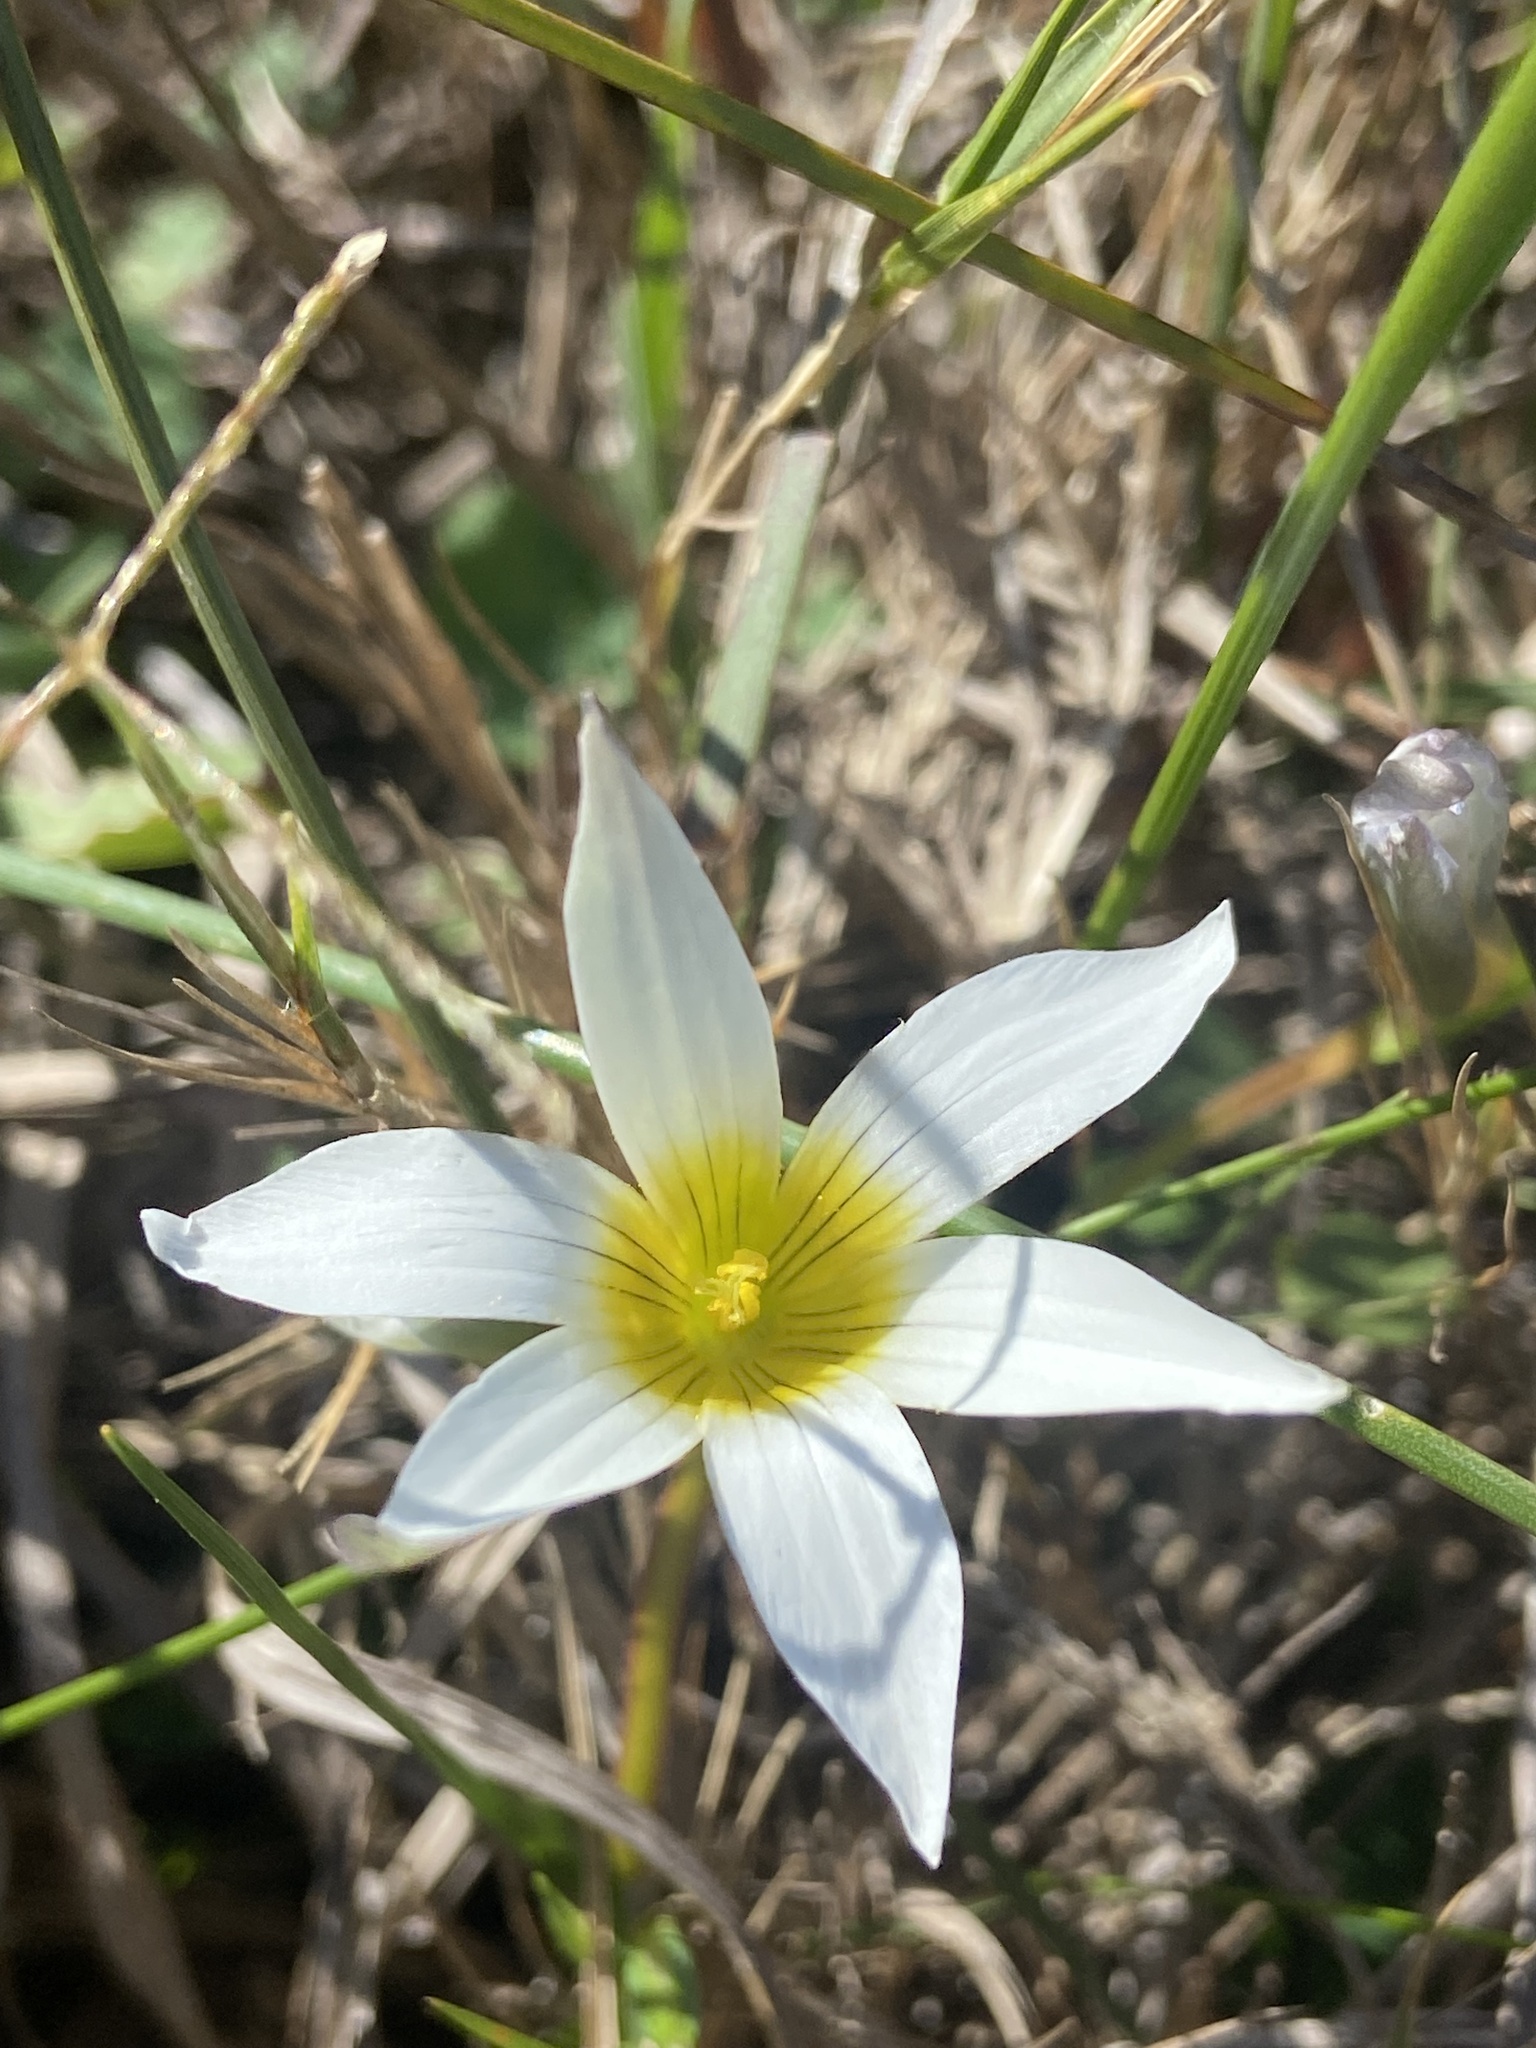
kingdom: Plantae
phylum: Tracheophyta
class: Liliopsida
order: Asparagales
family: Iridaceae
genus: Romulea
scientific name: Romulea flava
